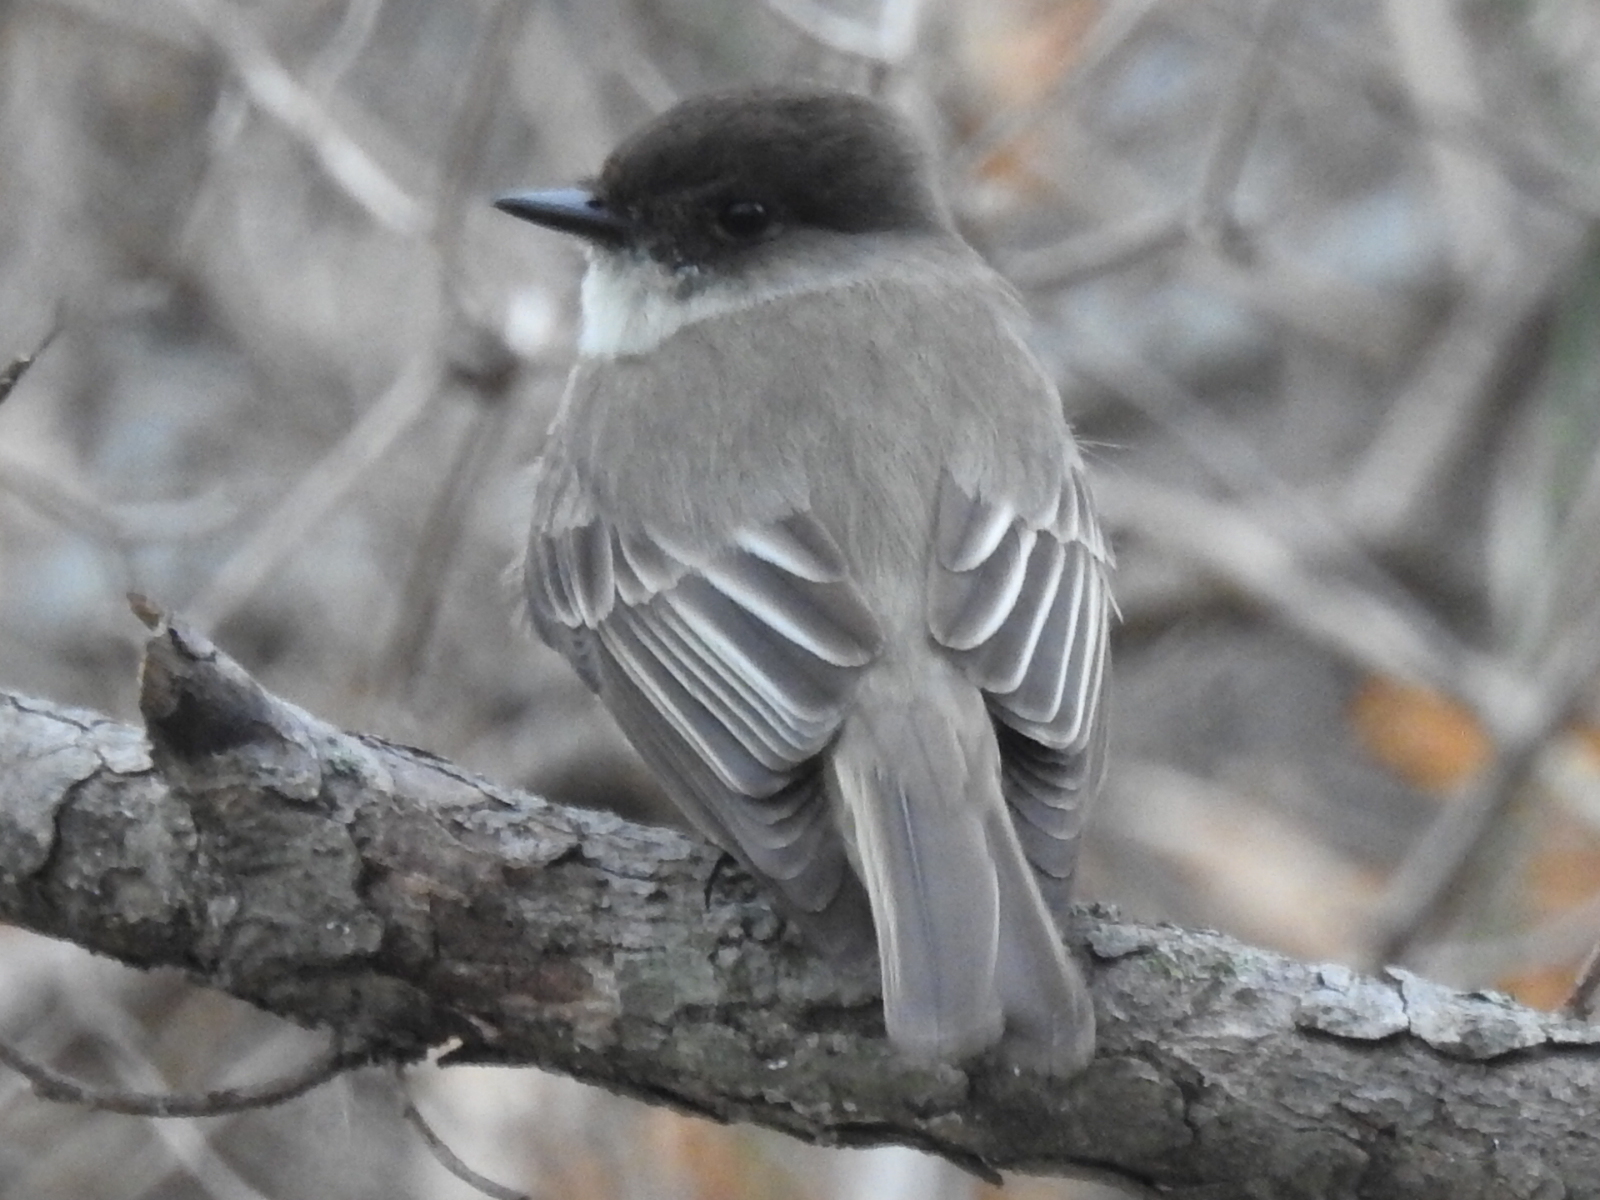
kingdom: Animalia
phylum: Chordata
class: Aves
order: Passeriformes
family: Tyrannidae
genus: Sayornis
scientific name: Sayornis phoebe
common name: Eastern phoebe
